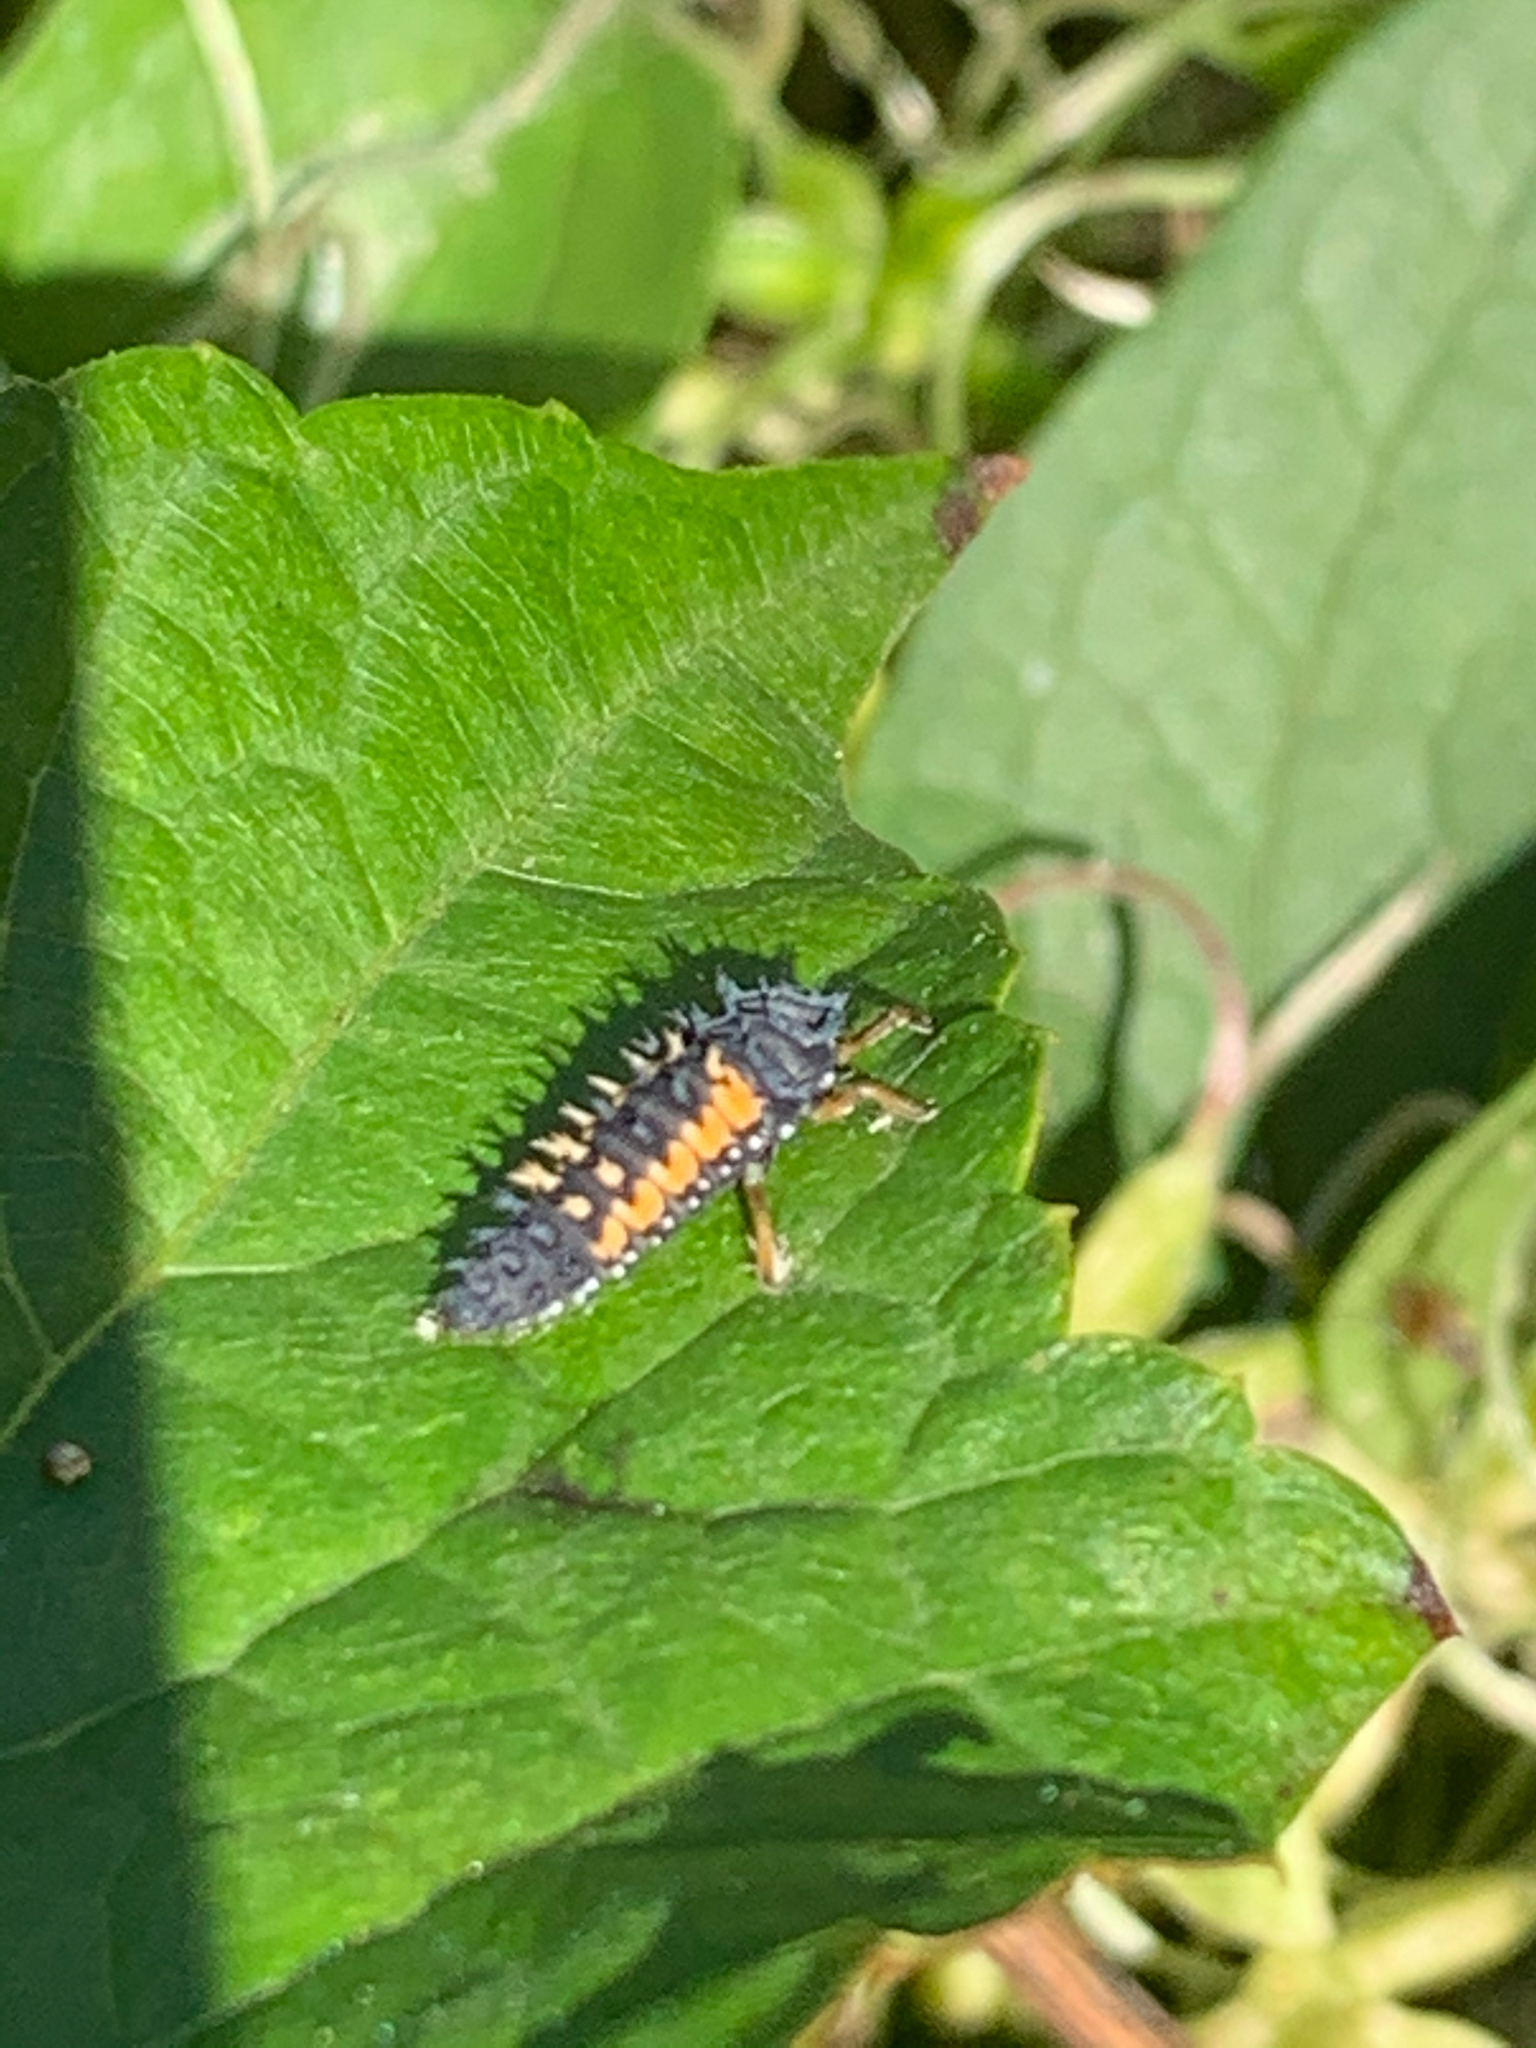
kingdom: Animalia
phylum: Arthropoda
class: Insecta
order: Coleoptera
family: Coccinellidae
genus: Harmonia
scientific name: Harmonia axyridis
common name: Harlequin ladybird
